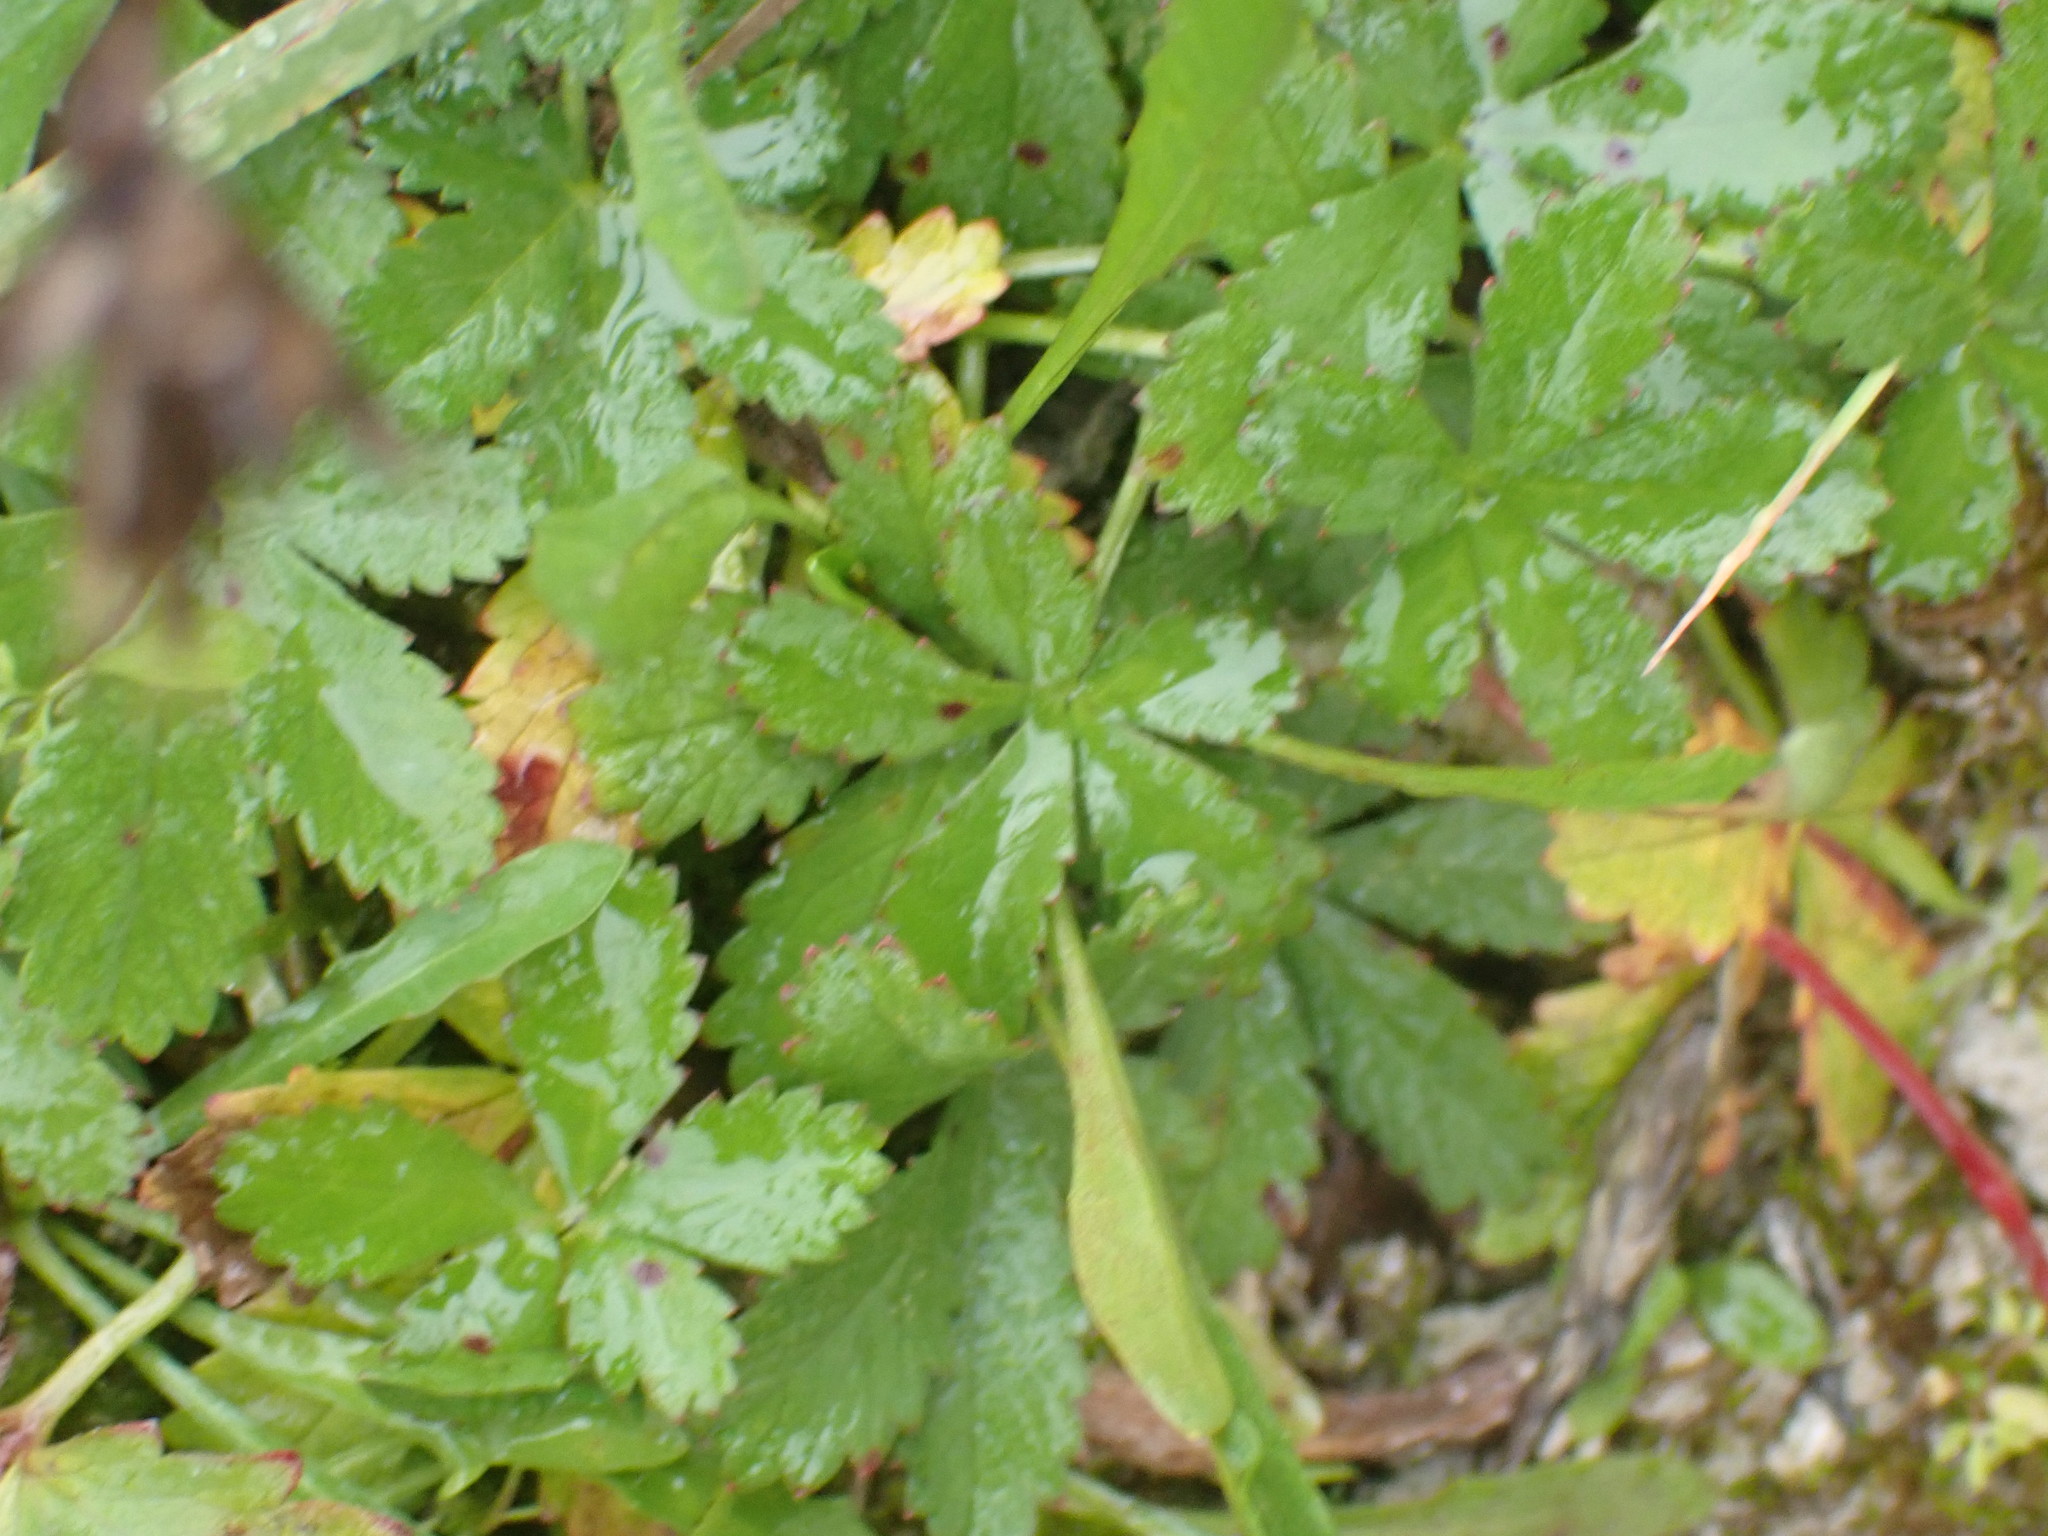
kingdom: Plantae
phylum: Tracheophyta
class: Magnoliopsida
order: Rosales
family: Rosaceae
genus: Potentilla
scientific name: Potentilla reptans
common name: Creeping cinquefoil
